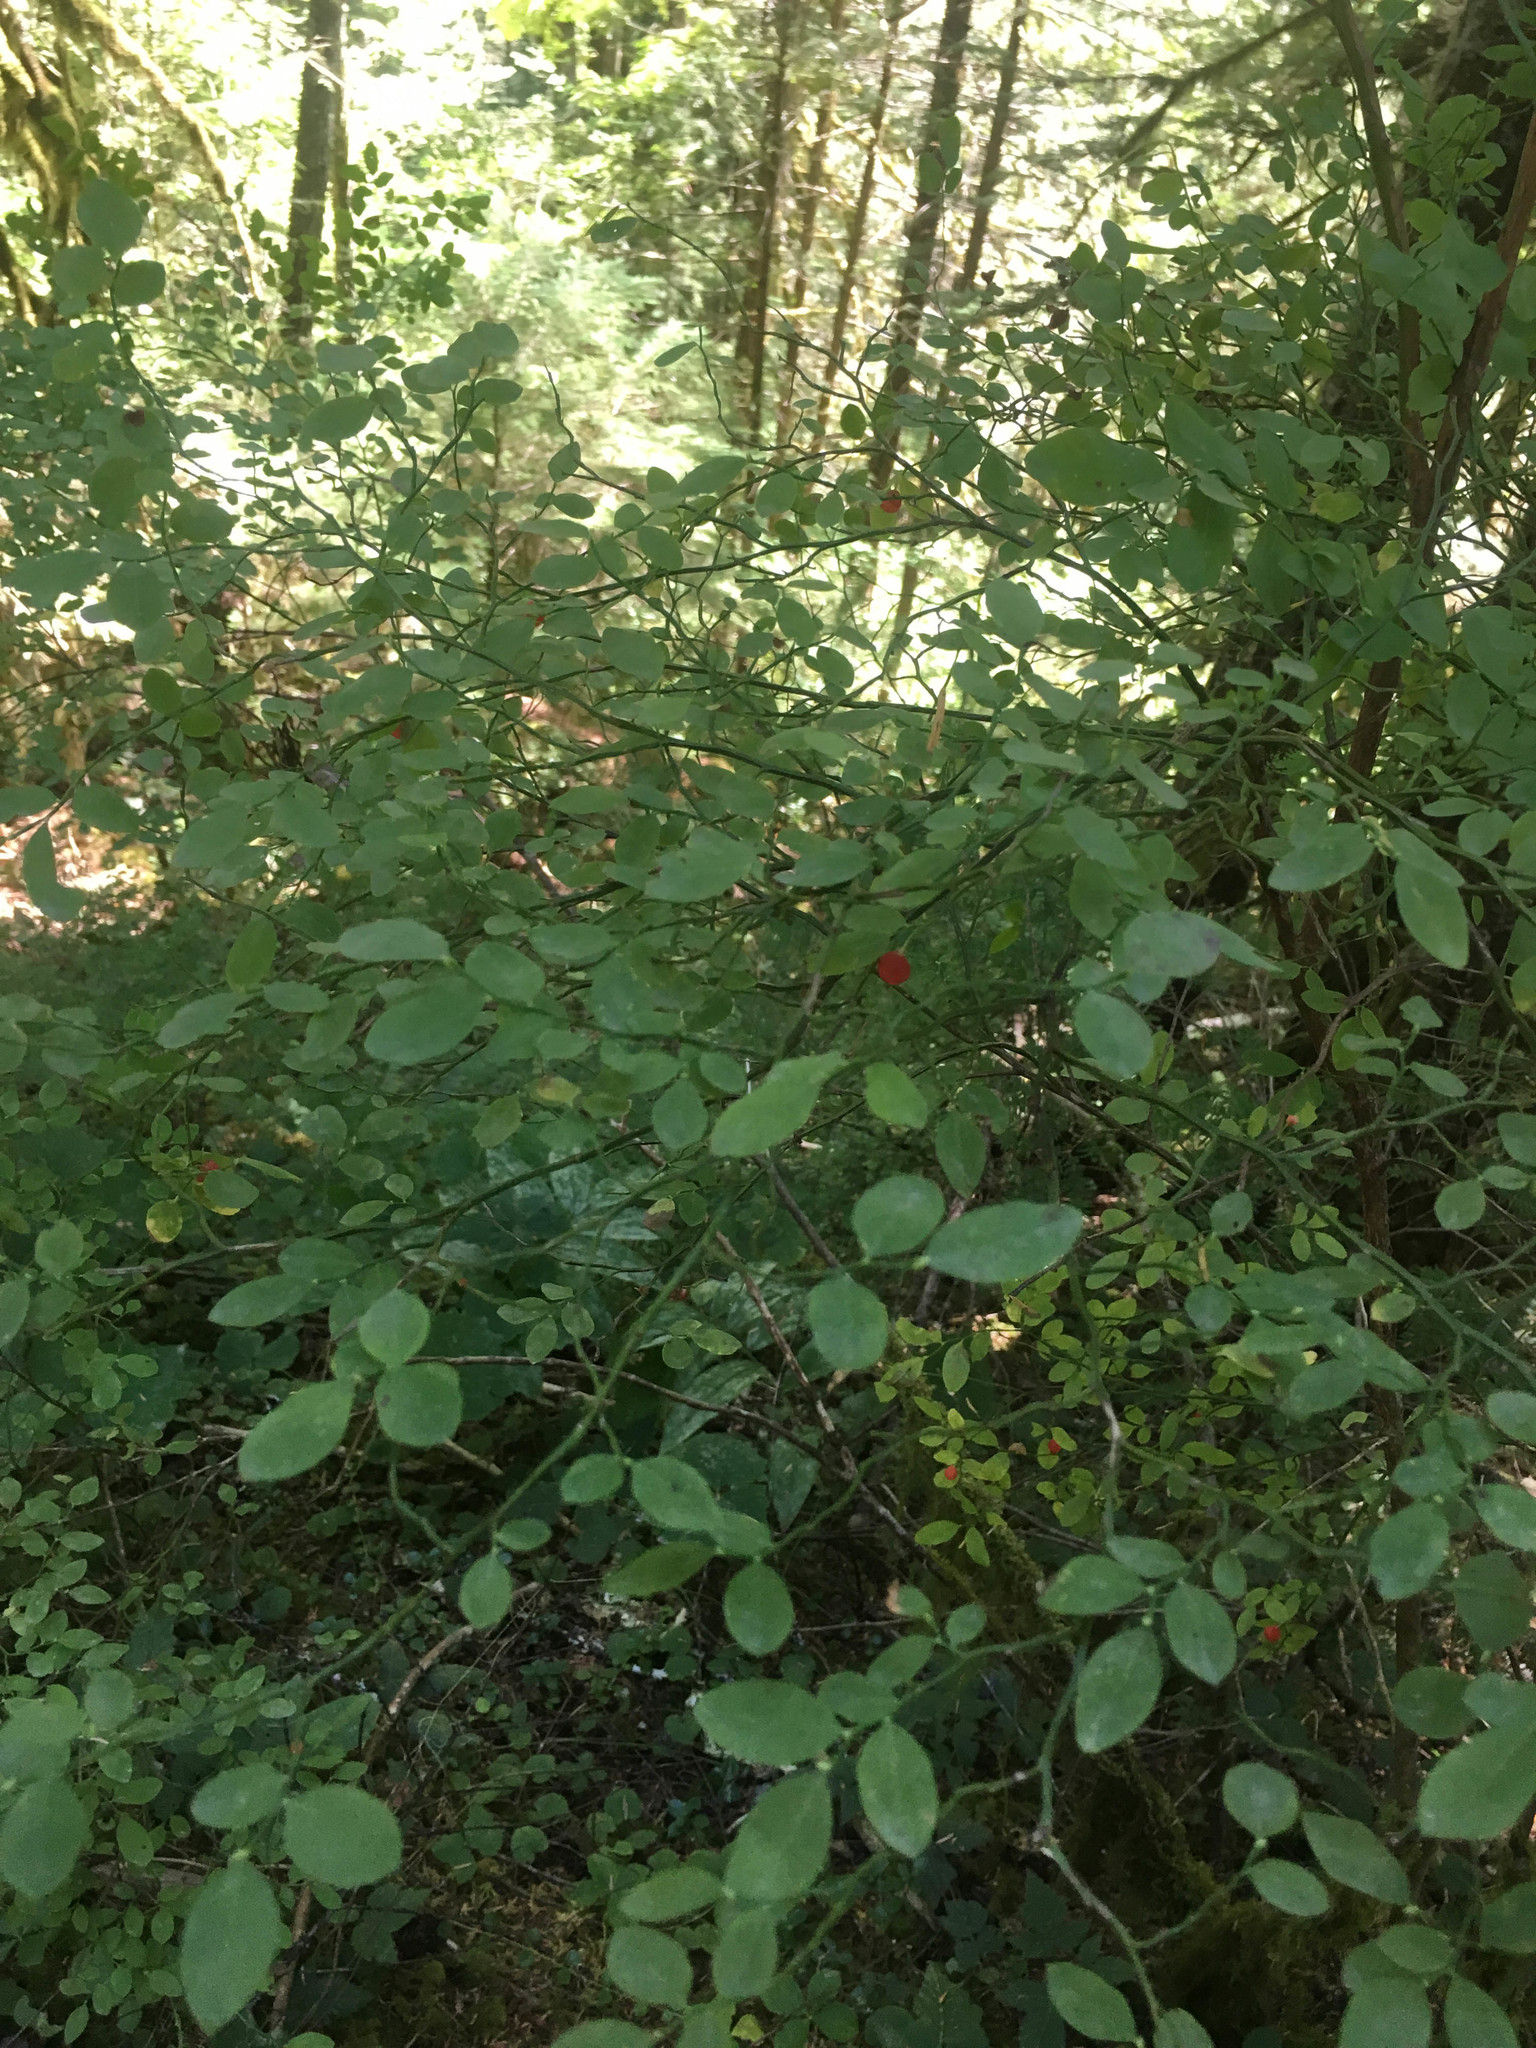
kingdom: Plantae
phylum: Tracheophyta
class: Magnoliopsida
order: Ericales
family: Ericaceae
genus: Vaccinium
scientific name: Vaccinium parvifolium
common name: Red-huckleberry
